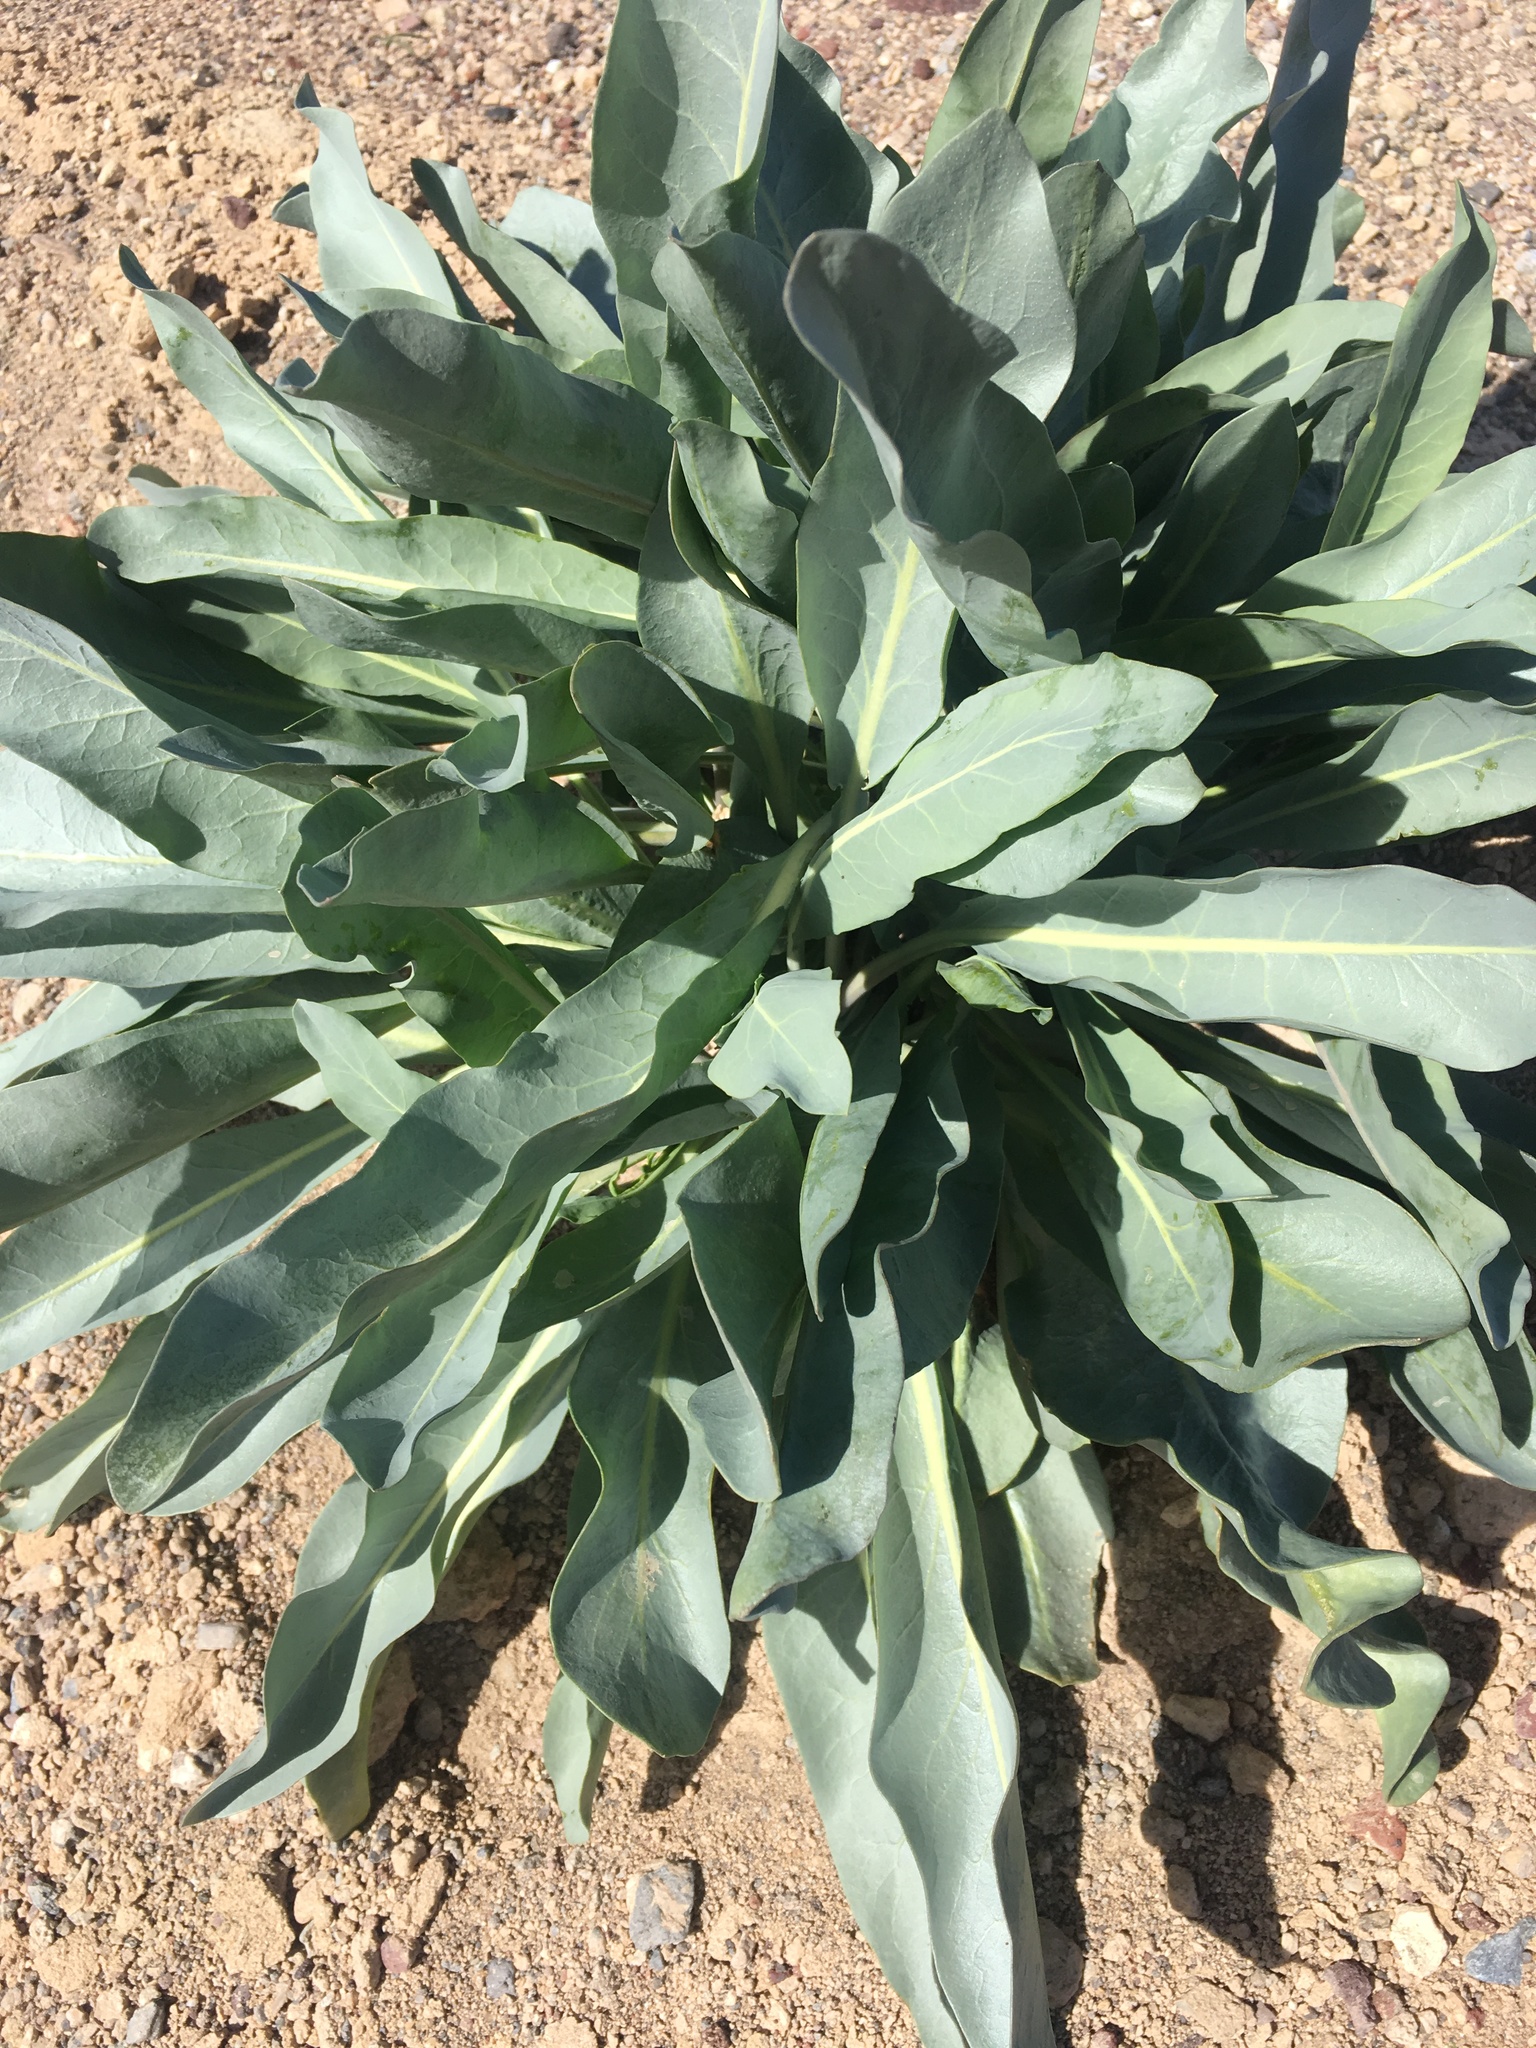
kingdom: Plantae
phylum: Tracheophyta
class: Magnoliopsida
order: Brassicales
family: Brassicaceae
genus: Stanleya
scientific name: Stanleya elata
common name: Panamint prince's plume
